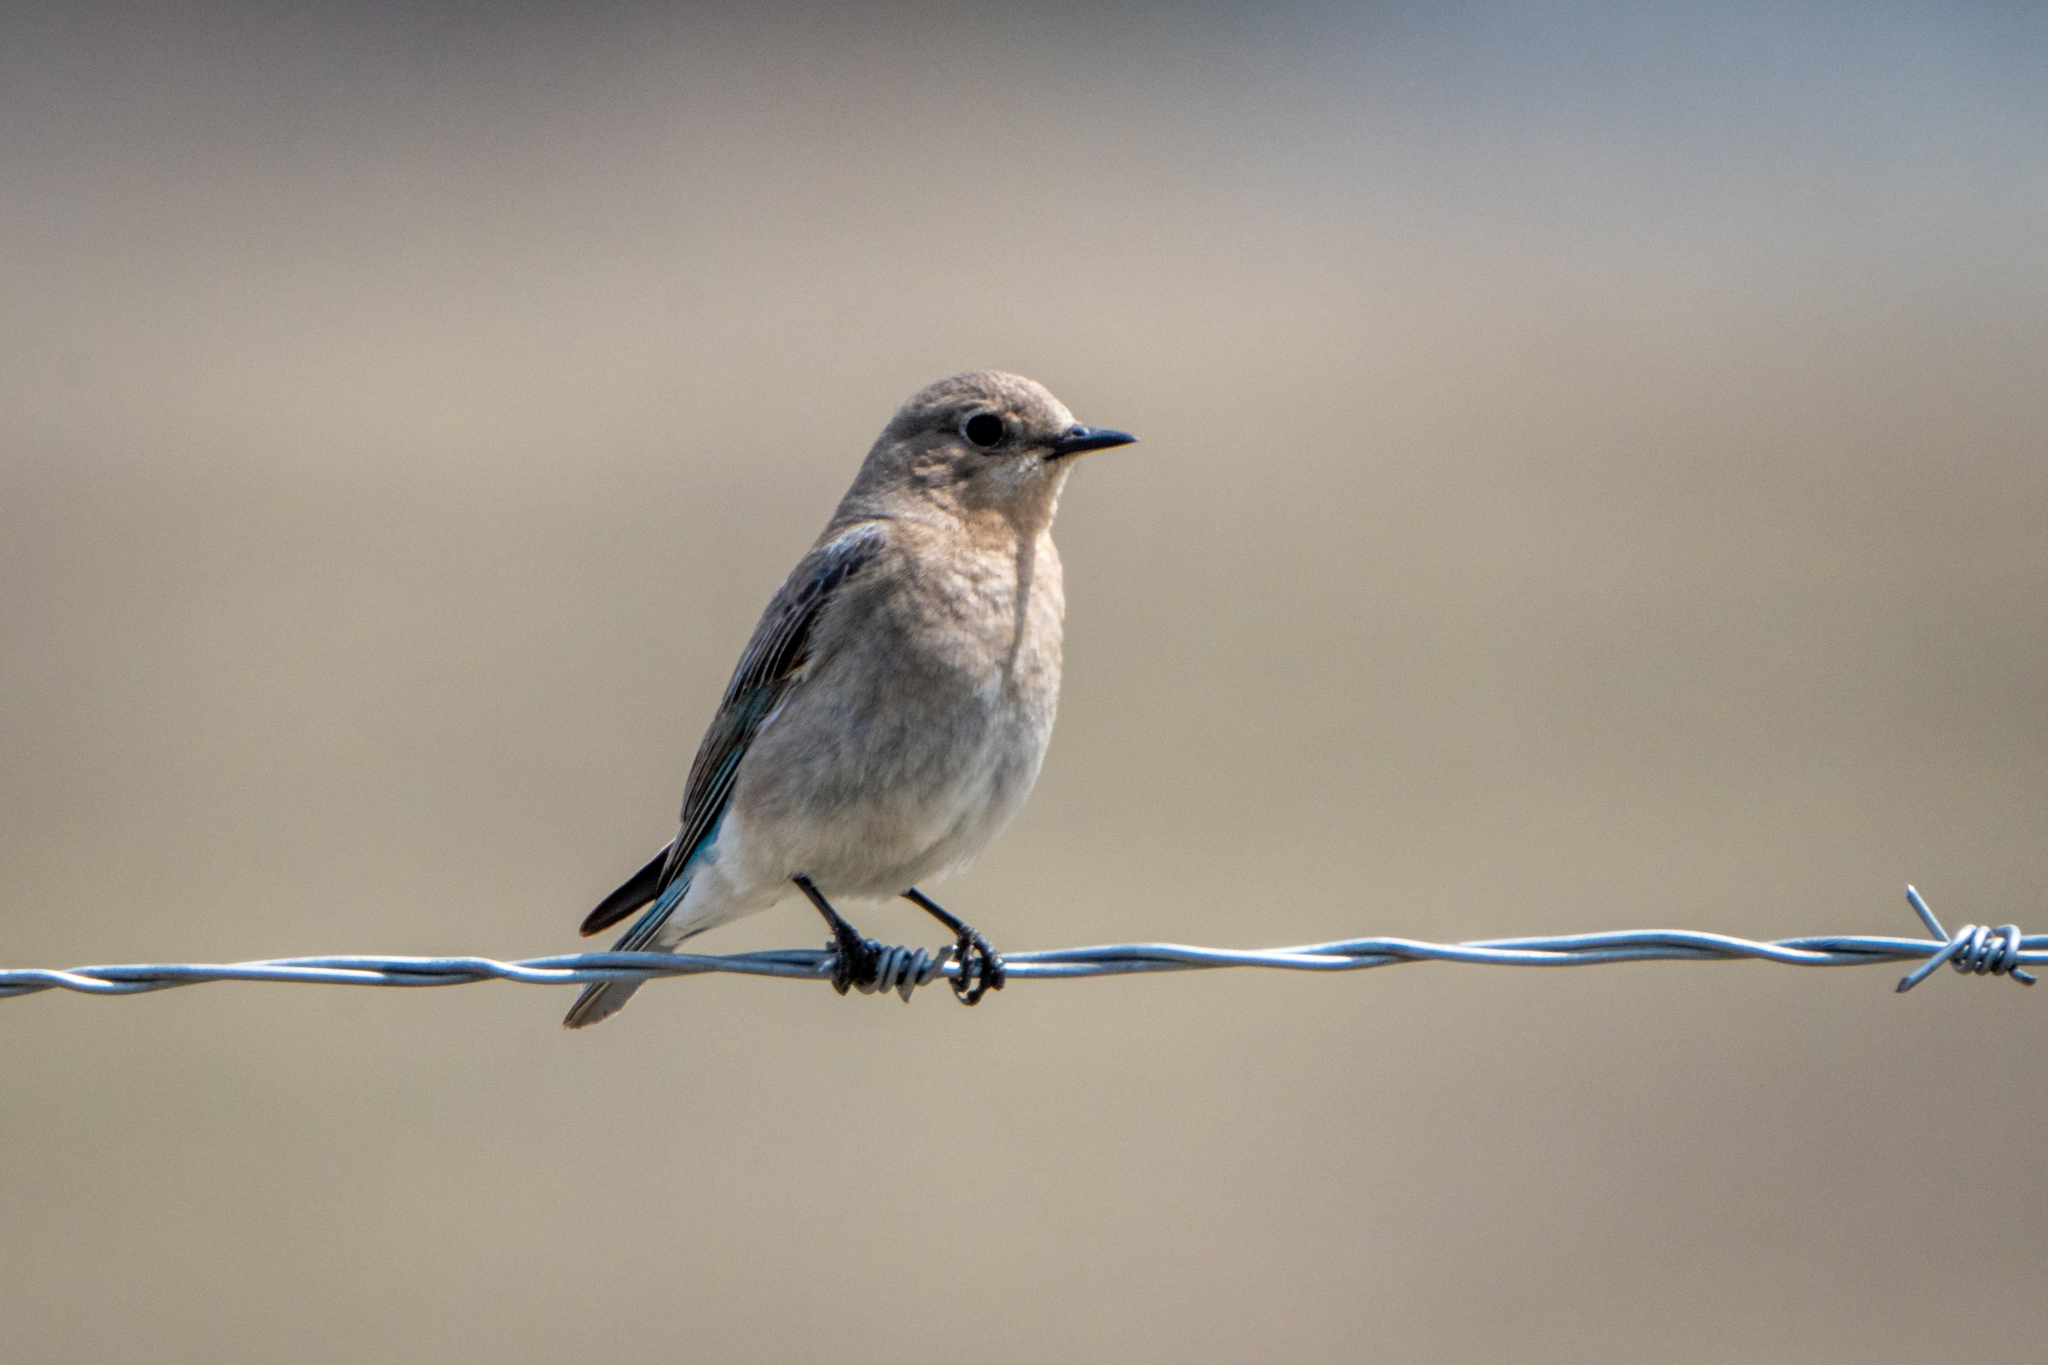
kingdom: Animalia
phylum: Chordata
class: Aves
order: Passeriformes
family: Turdidae
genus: Sialia
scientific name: Sialia currucoides
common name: Mountain bluebird
